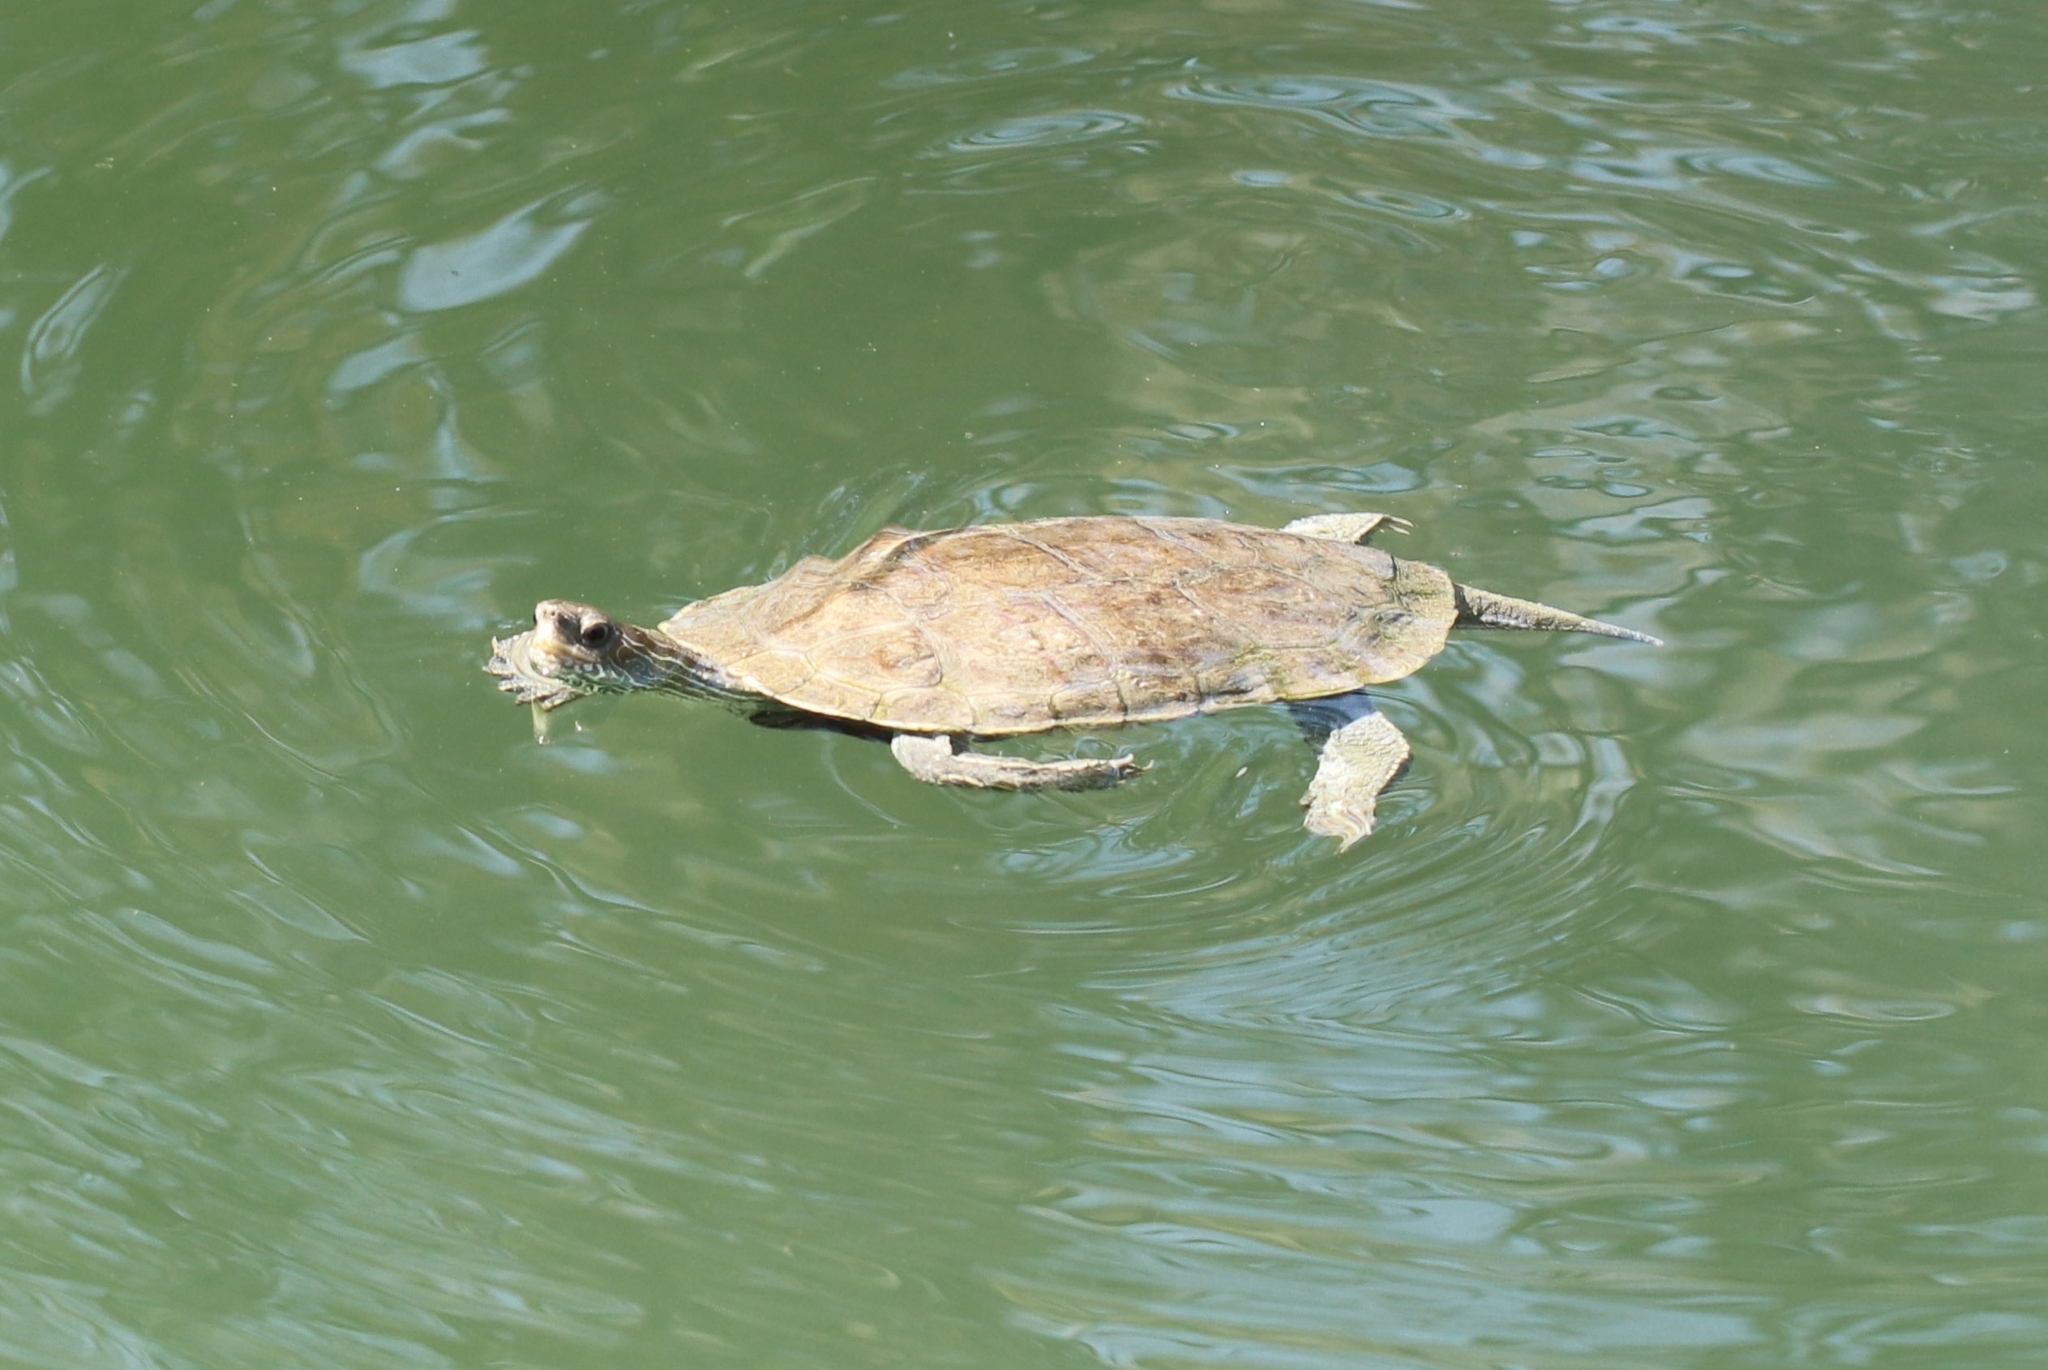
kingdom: Animalia
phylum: Chordata
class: Testudines
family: Geoemydidae
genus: Mauremys
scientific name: Mauremys rivulata
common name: Western caspian turtle
